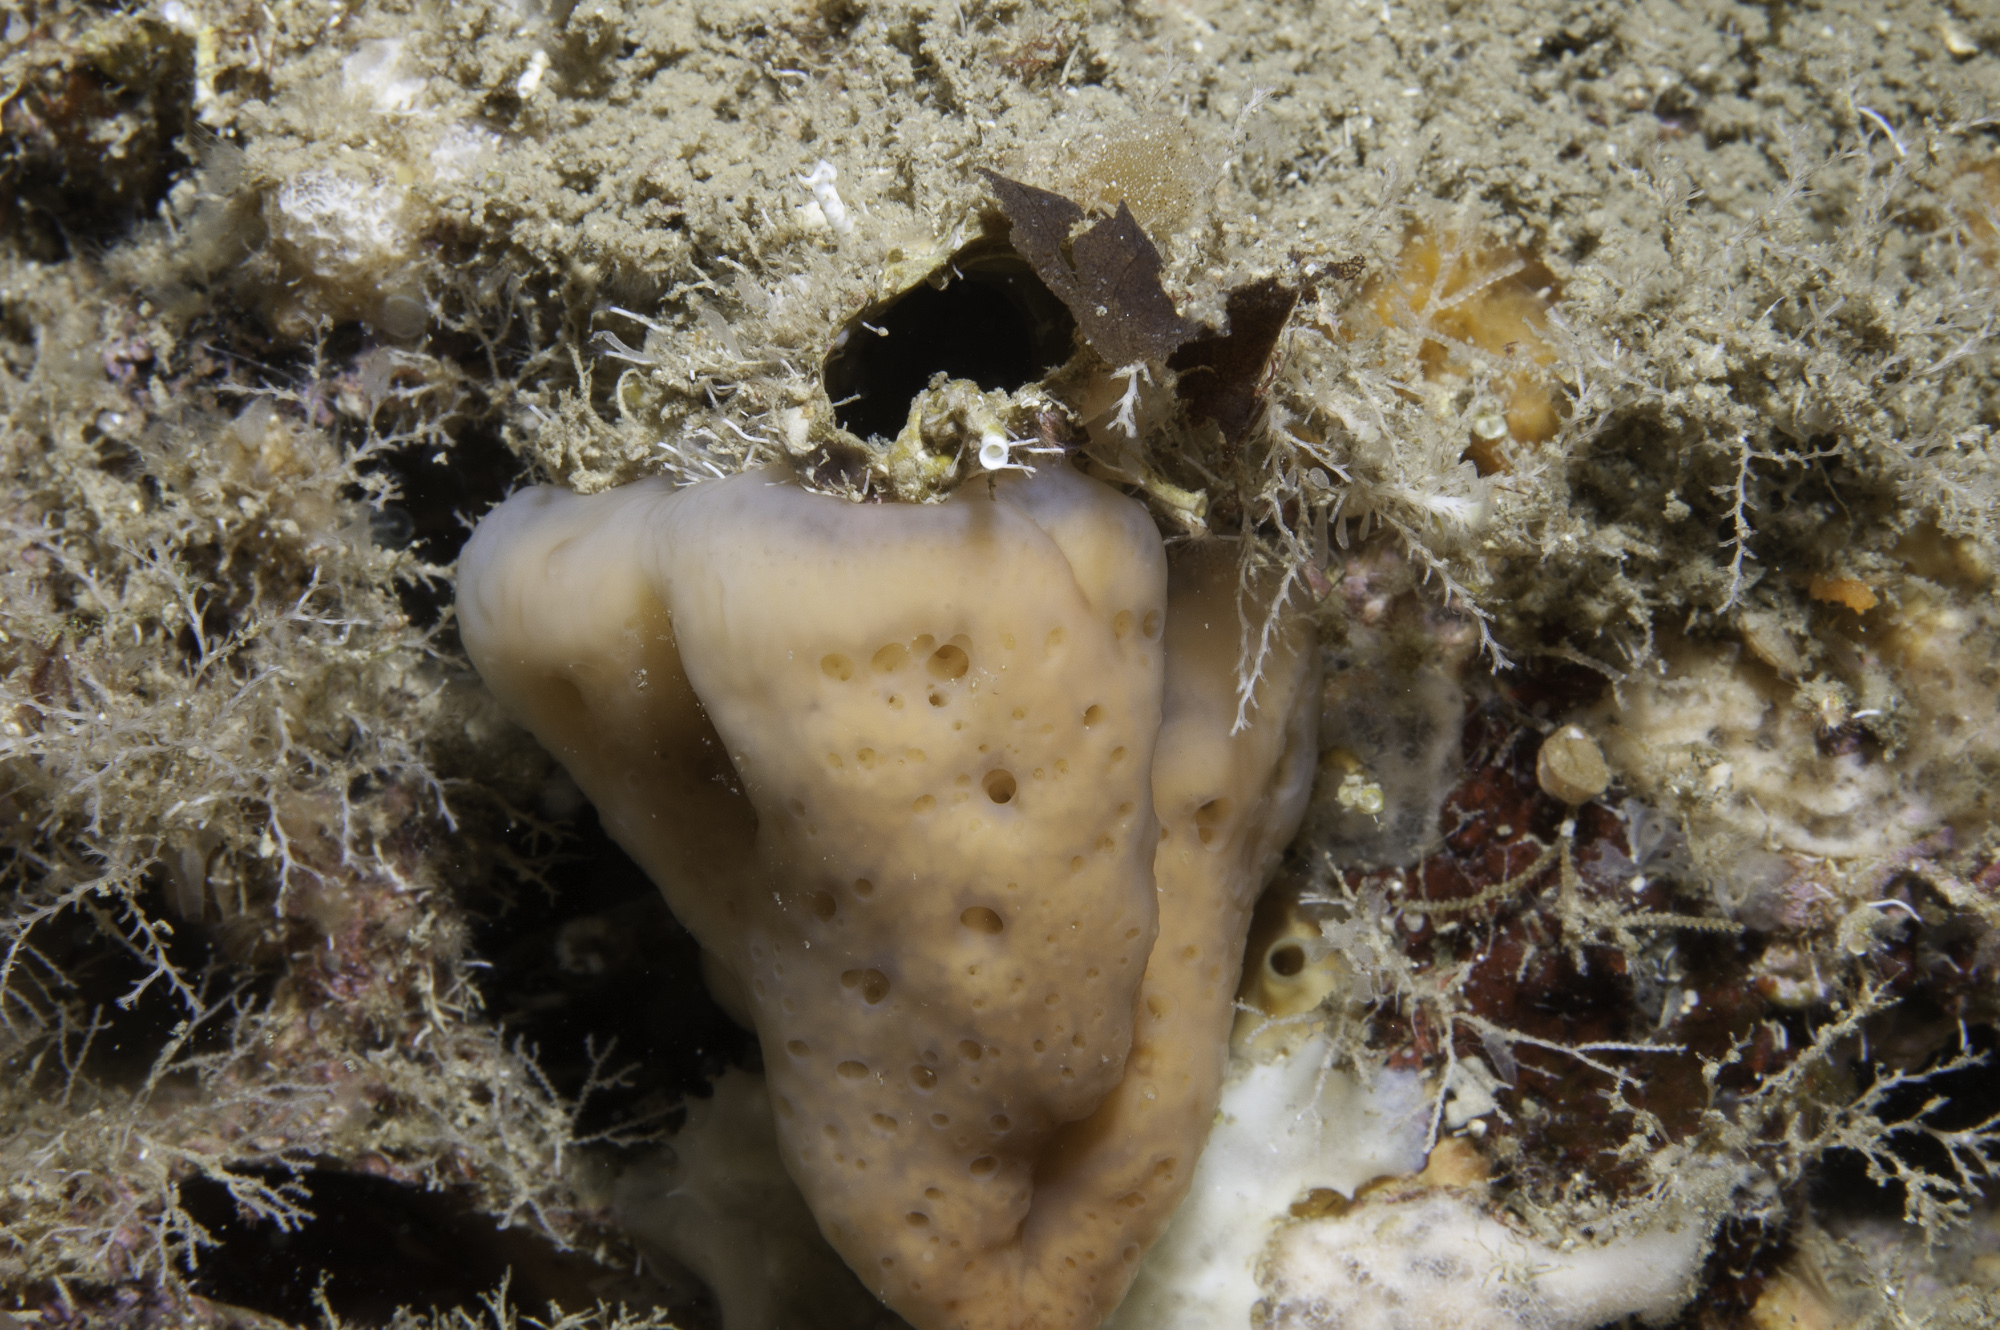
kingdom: Animalia
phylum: Porifera
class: Homoscleromorpha
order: Homosclerophorida
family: Plakinidae
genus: Corticium
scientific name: Corticium candelabrum
